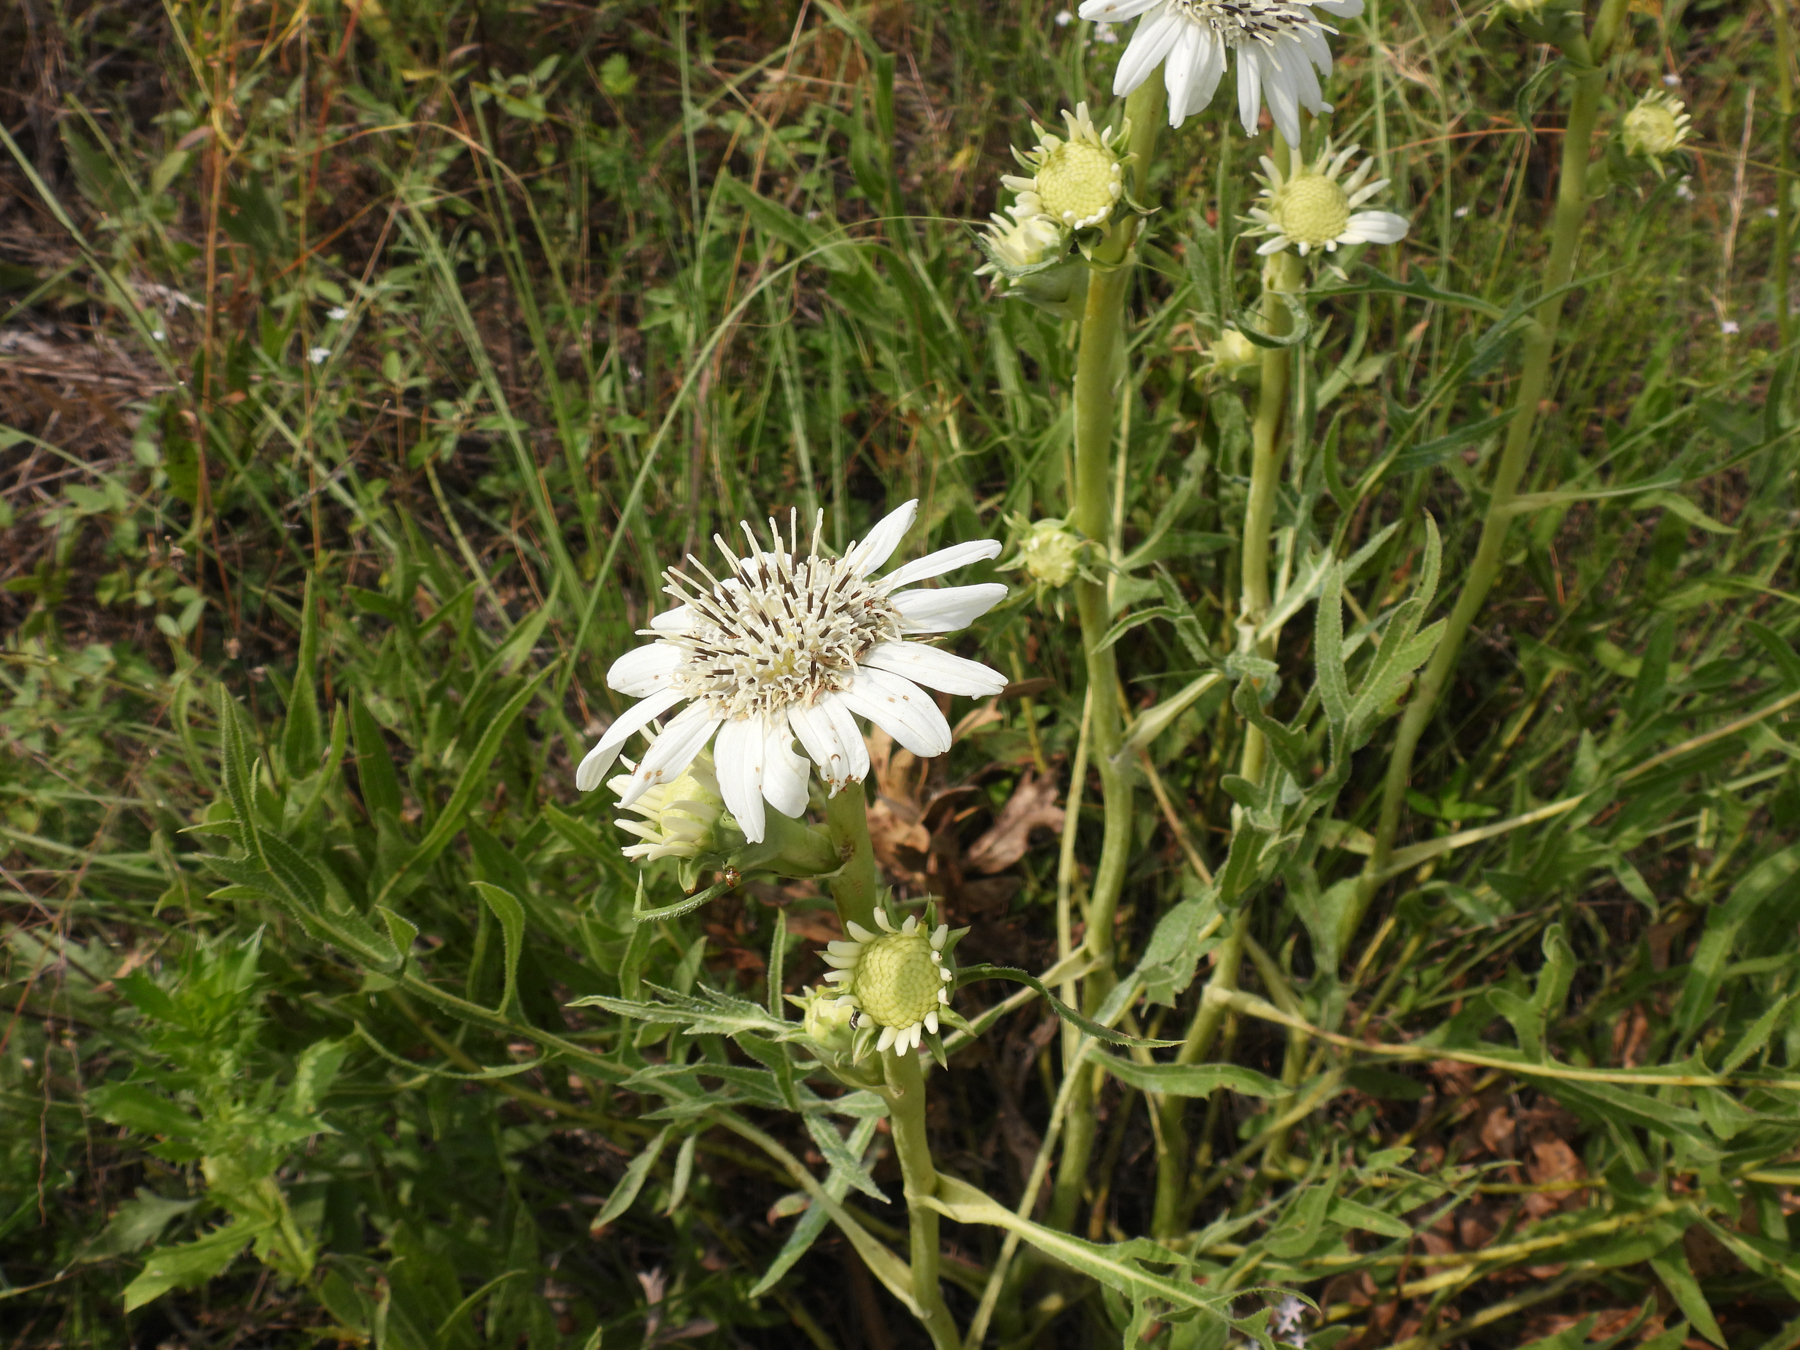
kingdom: Plantae
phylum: Tracheophyta
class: Magnoliopsida
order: Asterales
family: Asteraceae
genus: Silphium
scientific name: Silphium albiflorum
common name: White rosinweed
